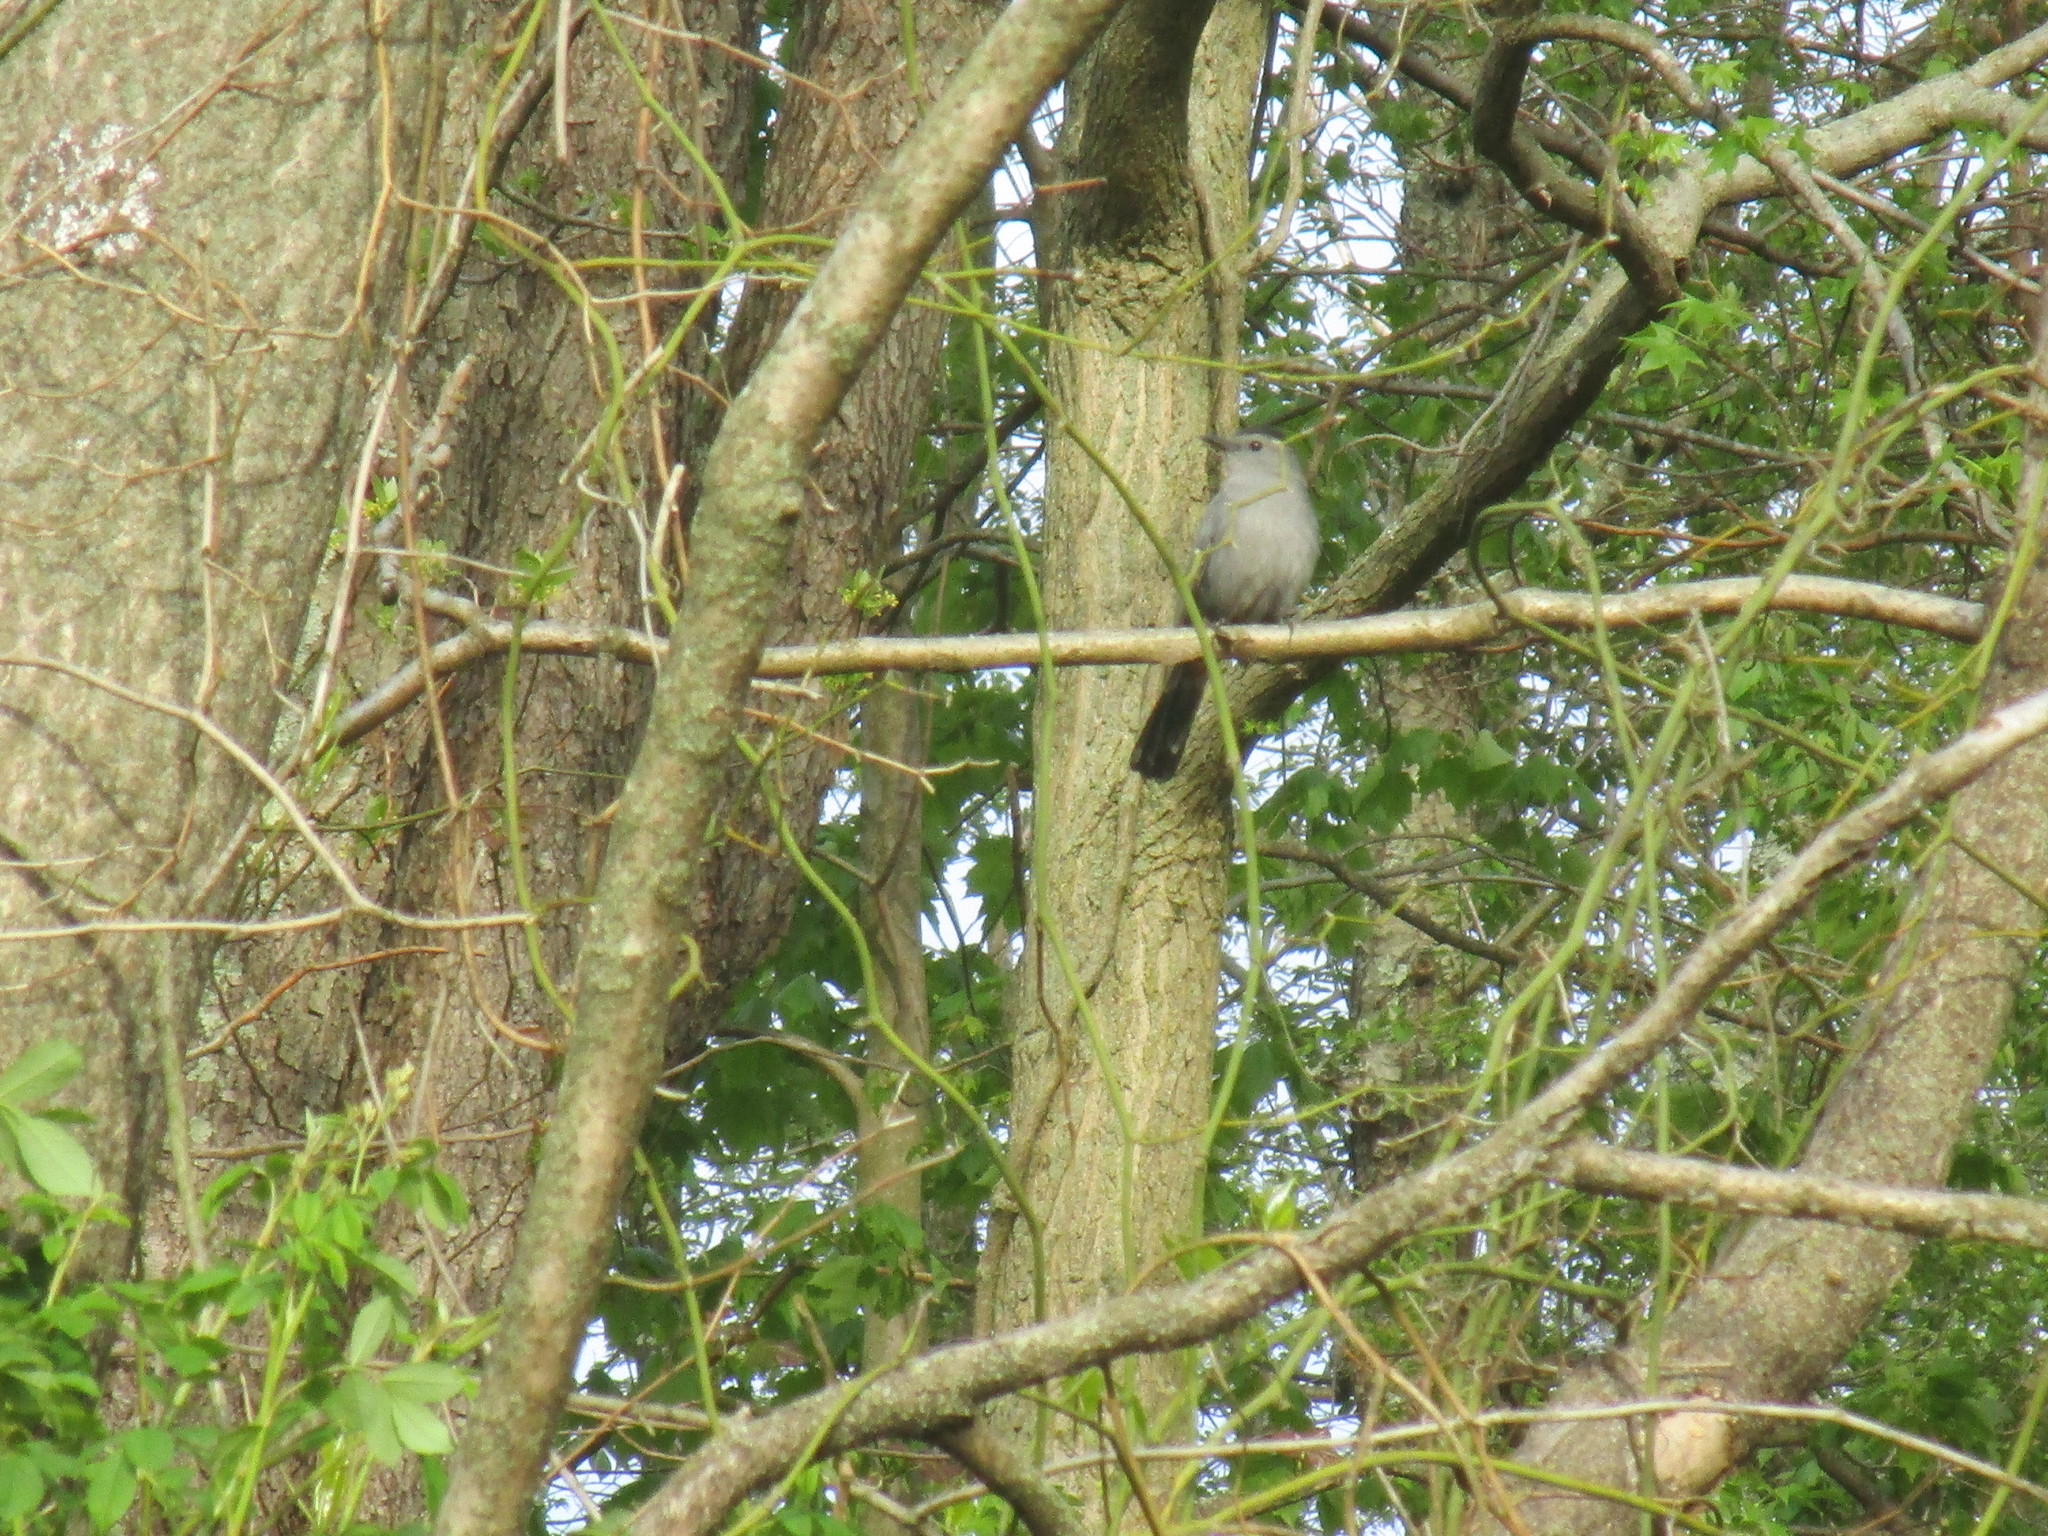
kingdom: Animalia
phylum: Chordata
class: Aves
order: Passeriformes
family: Mimidae
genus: Dumetella
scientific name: Dumetella carolinensis
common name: Gray catbird
